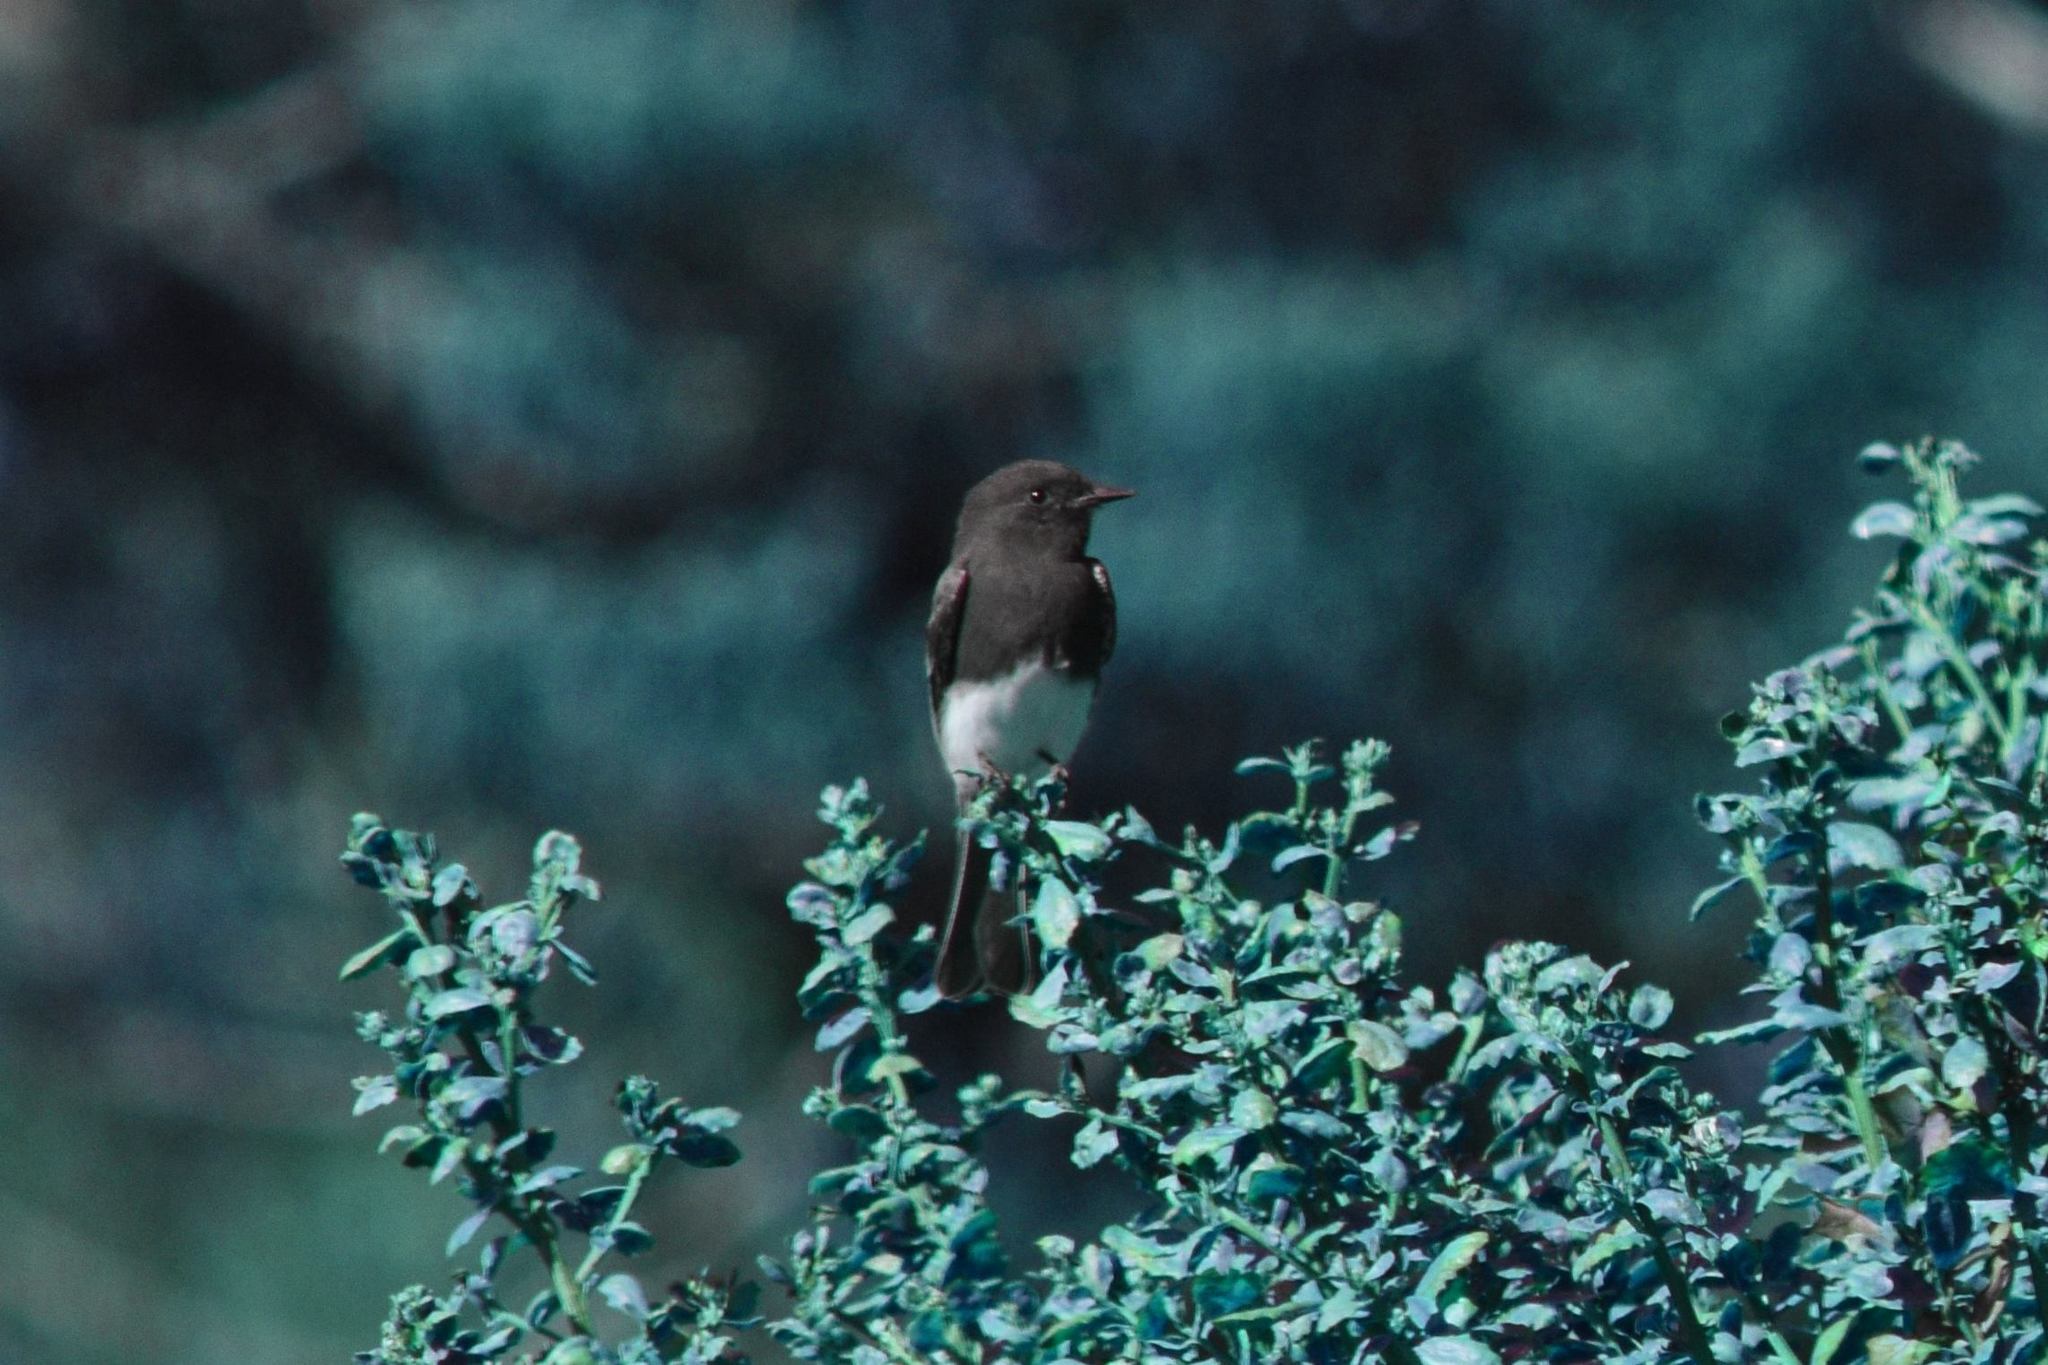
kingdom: Animalia
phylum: Chordata
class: Aves
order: Passeriformes
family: Tyrannidae
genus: Sayornis
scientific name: Sayornis nigricans
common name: Black phoebe
